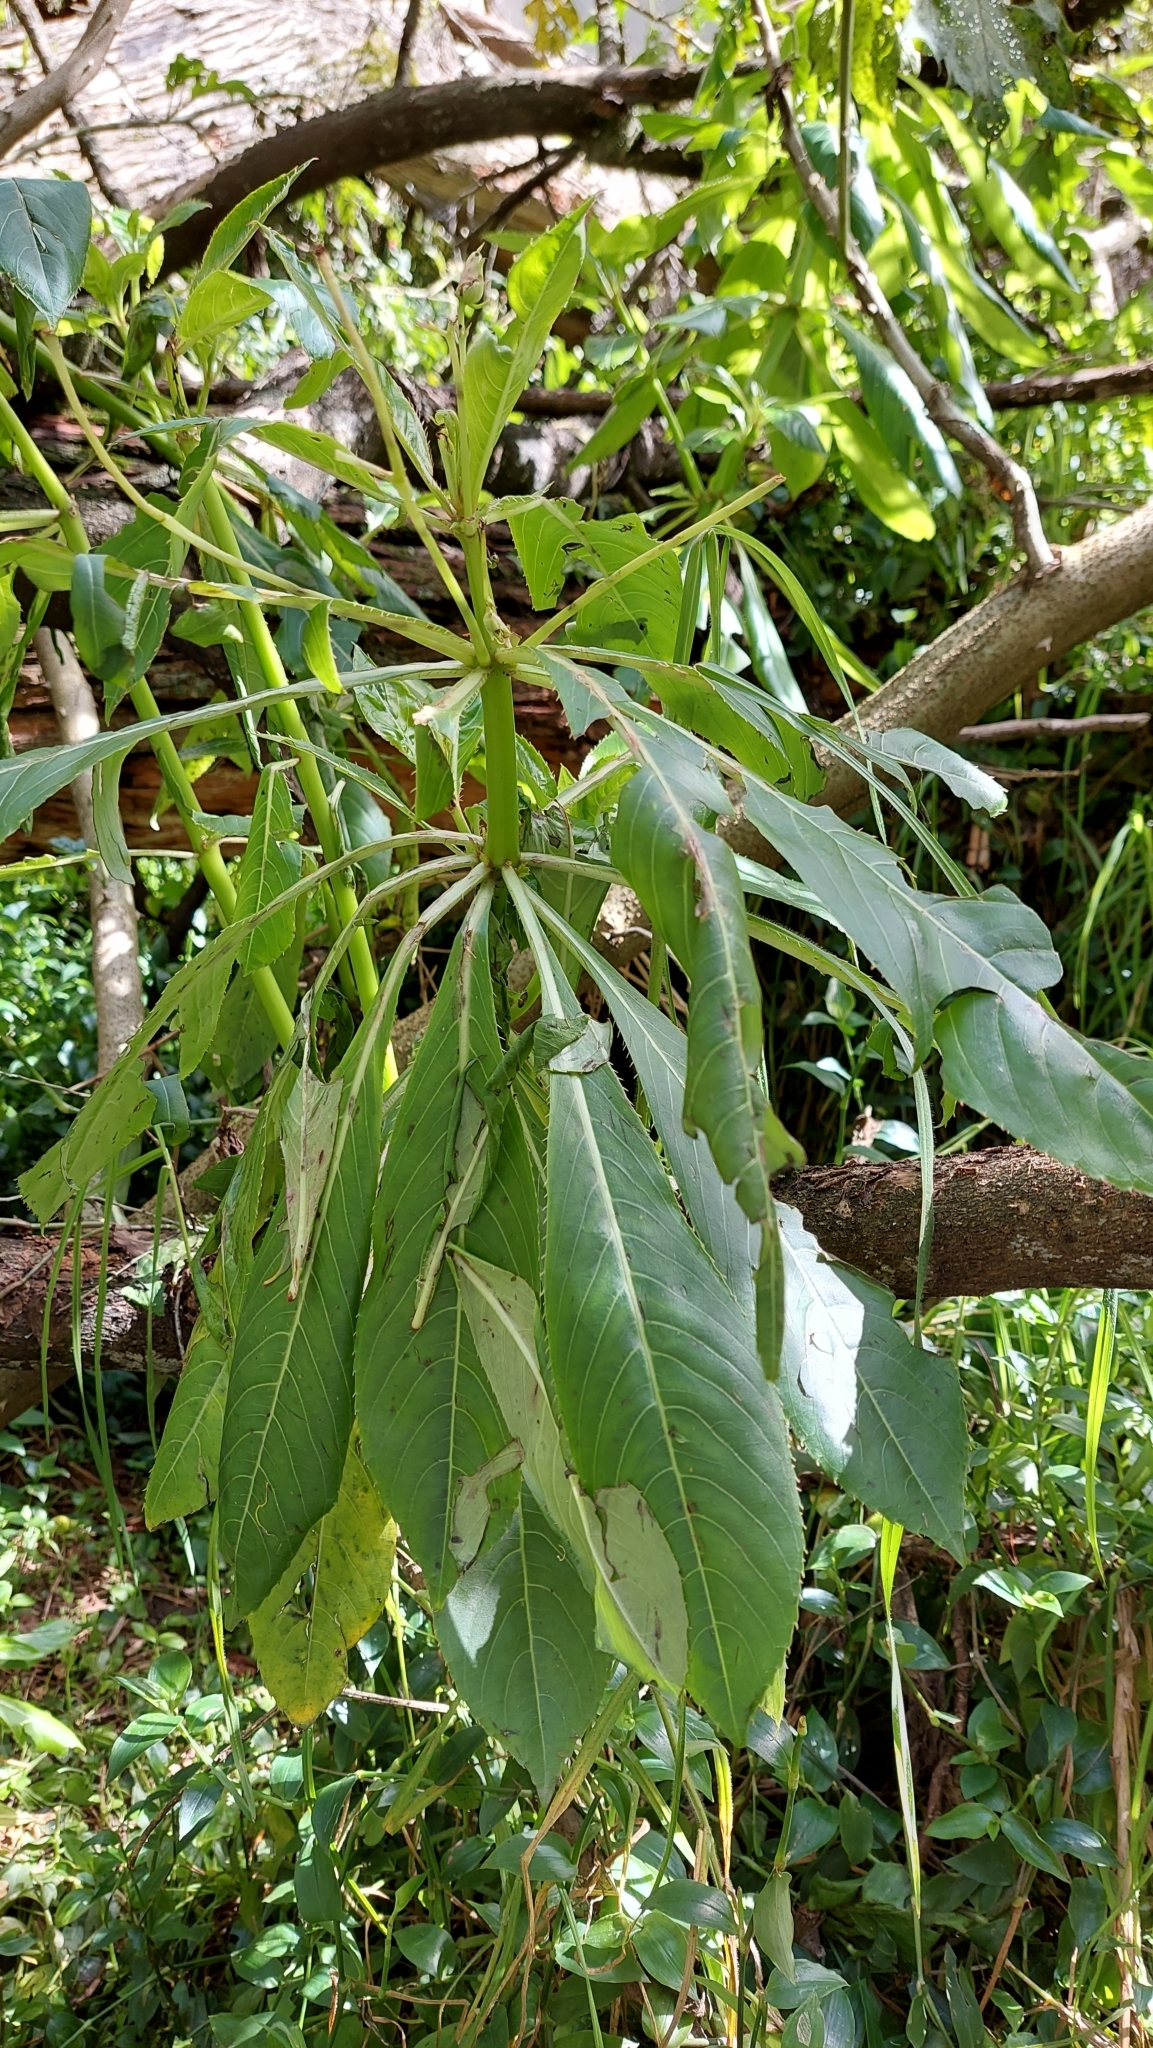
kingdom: Plantae
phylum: Tracheophyta
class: Magnoliopsida
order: Ericales
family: Balsaminaceae
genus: Impatiens
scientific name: Impatiens sodenii
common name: Oliver's touch-me-not
